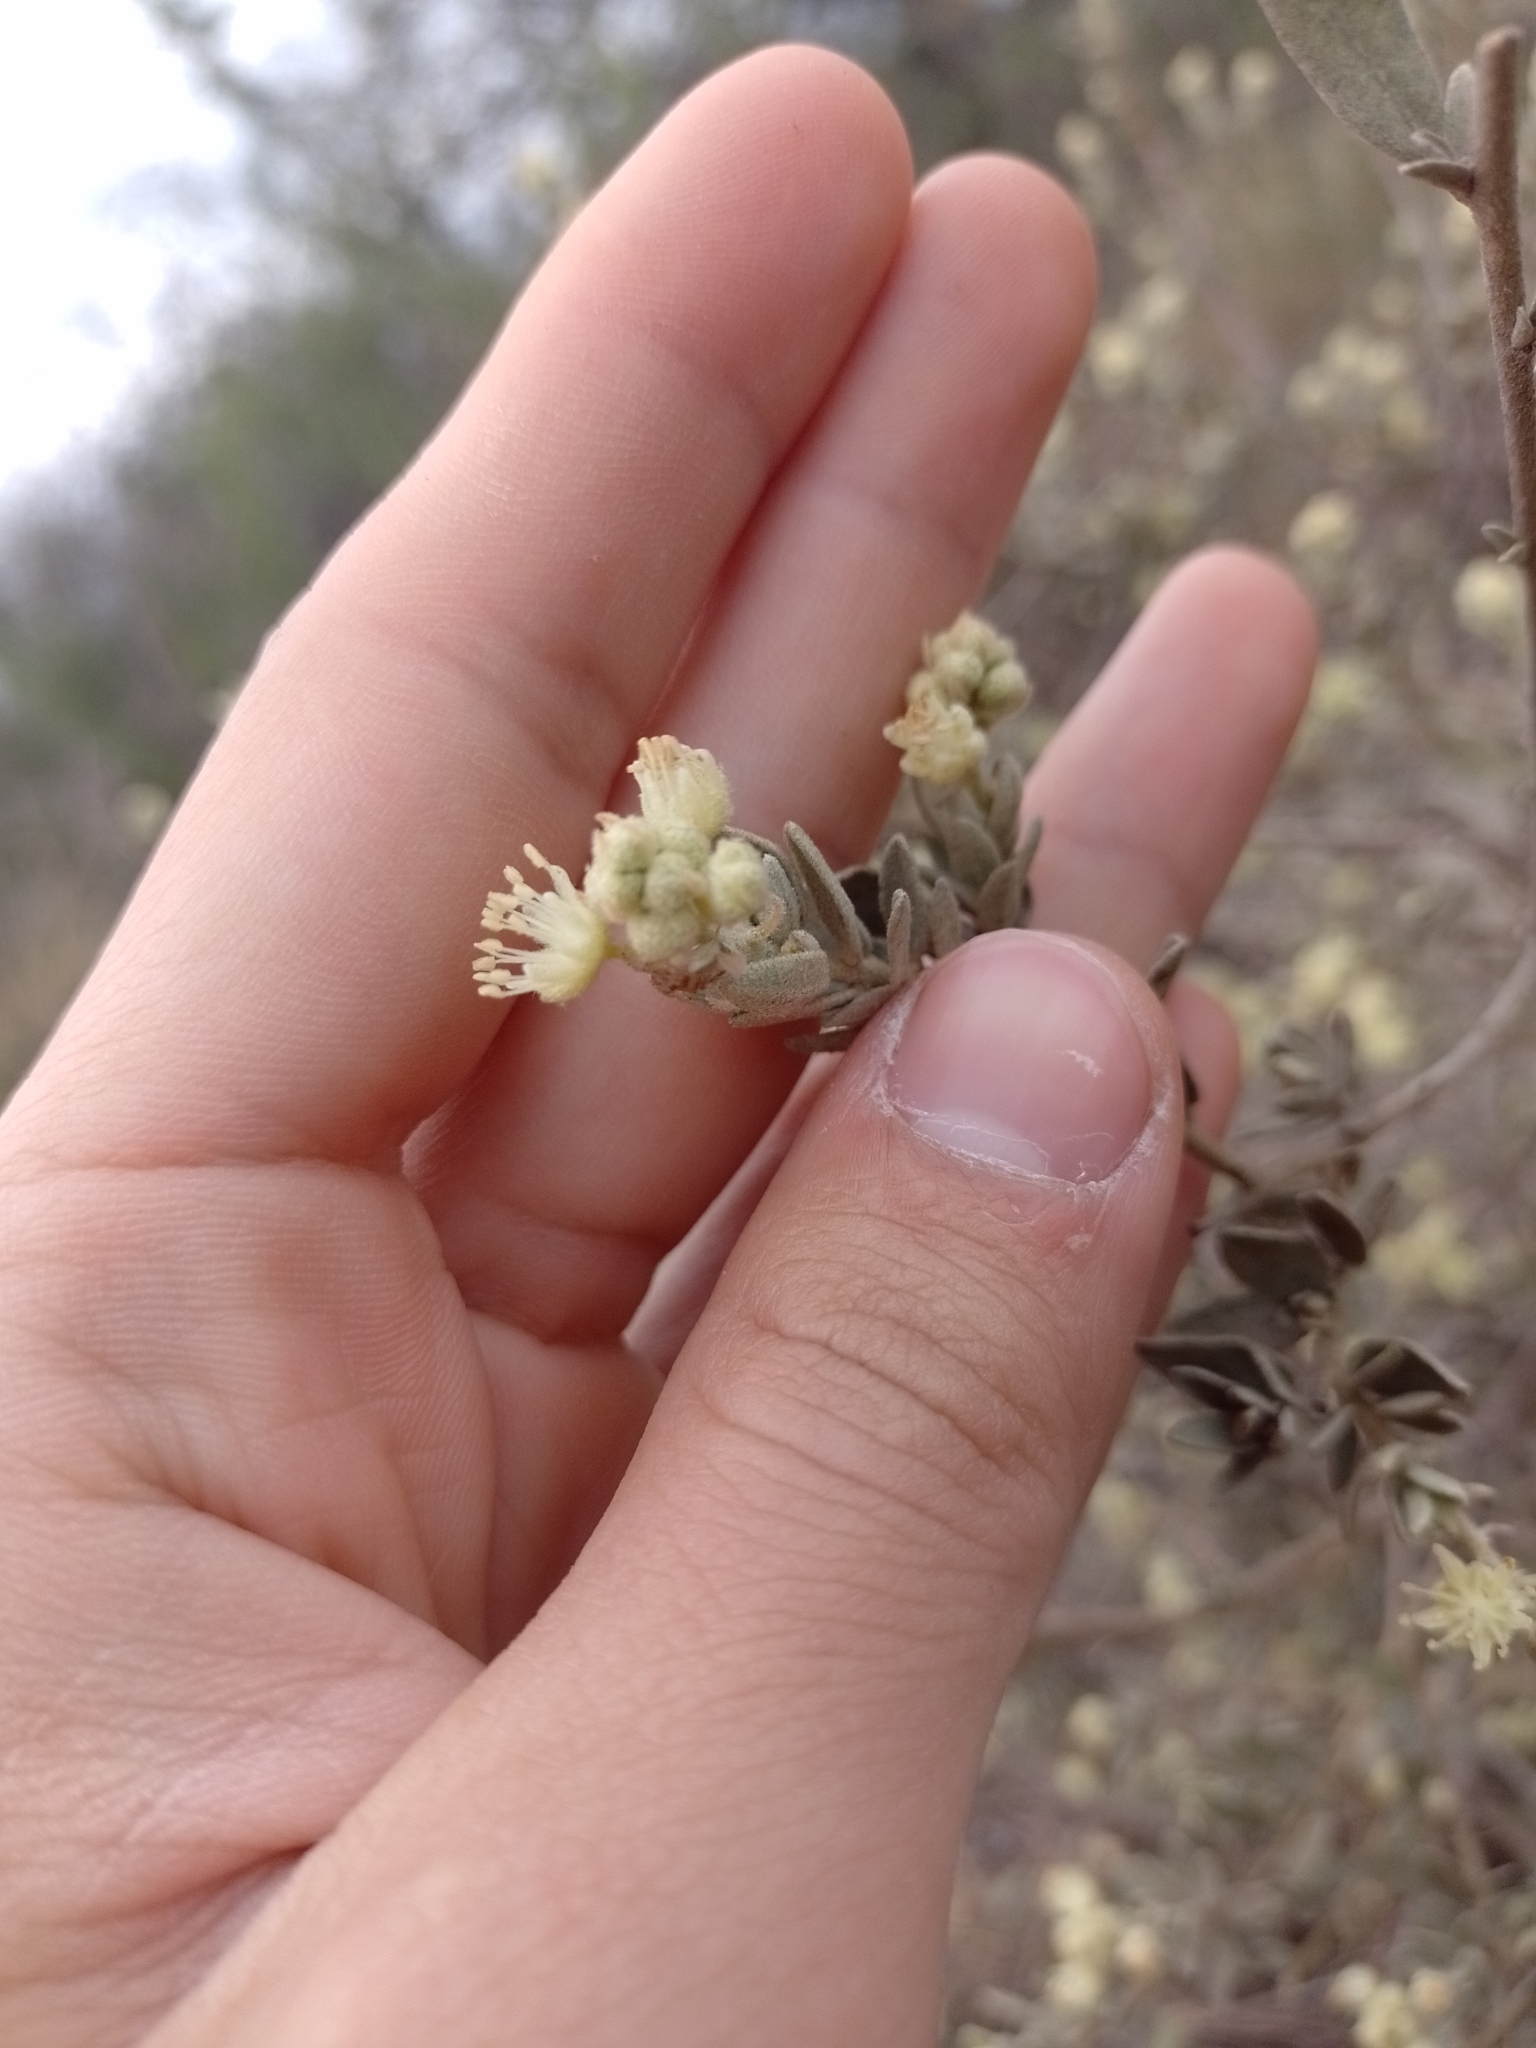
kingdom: Plantae
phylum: Tracheophyta
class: Magnoliopsida
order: Malpighiales
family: Euphorbiaceae
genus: Croton
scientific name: Croton parvifolius
